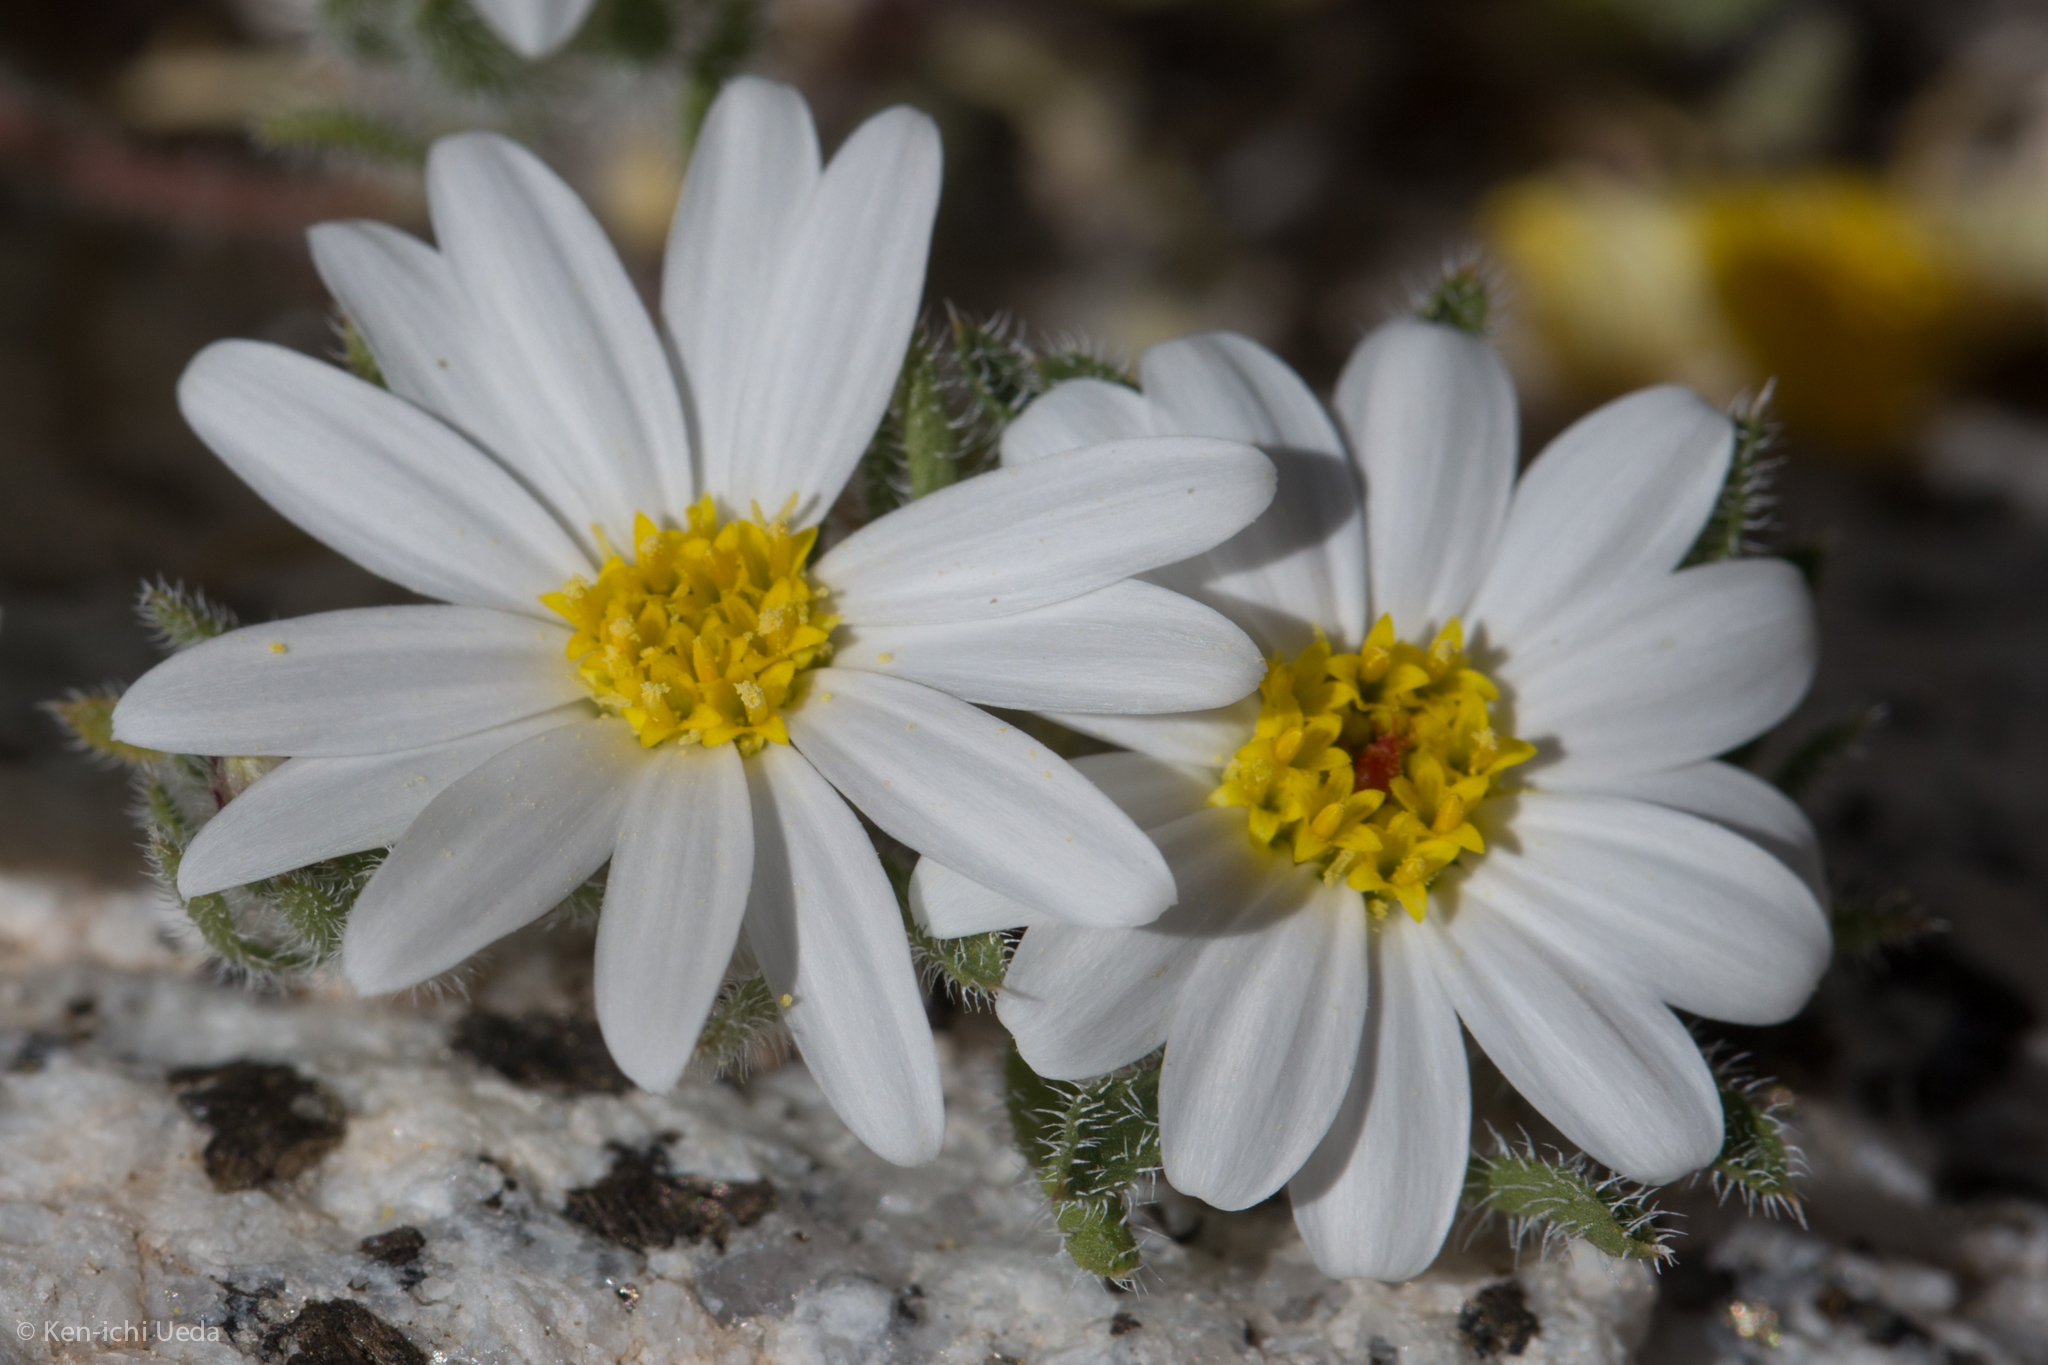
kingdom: Plantae
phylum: Tracheophyta
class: Magnoliopsida
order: Asterales
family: Asteraceae
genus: Monoptilon
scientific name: Monoptilon bellioides
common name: Bristly desertstar
